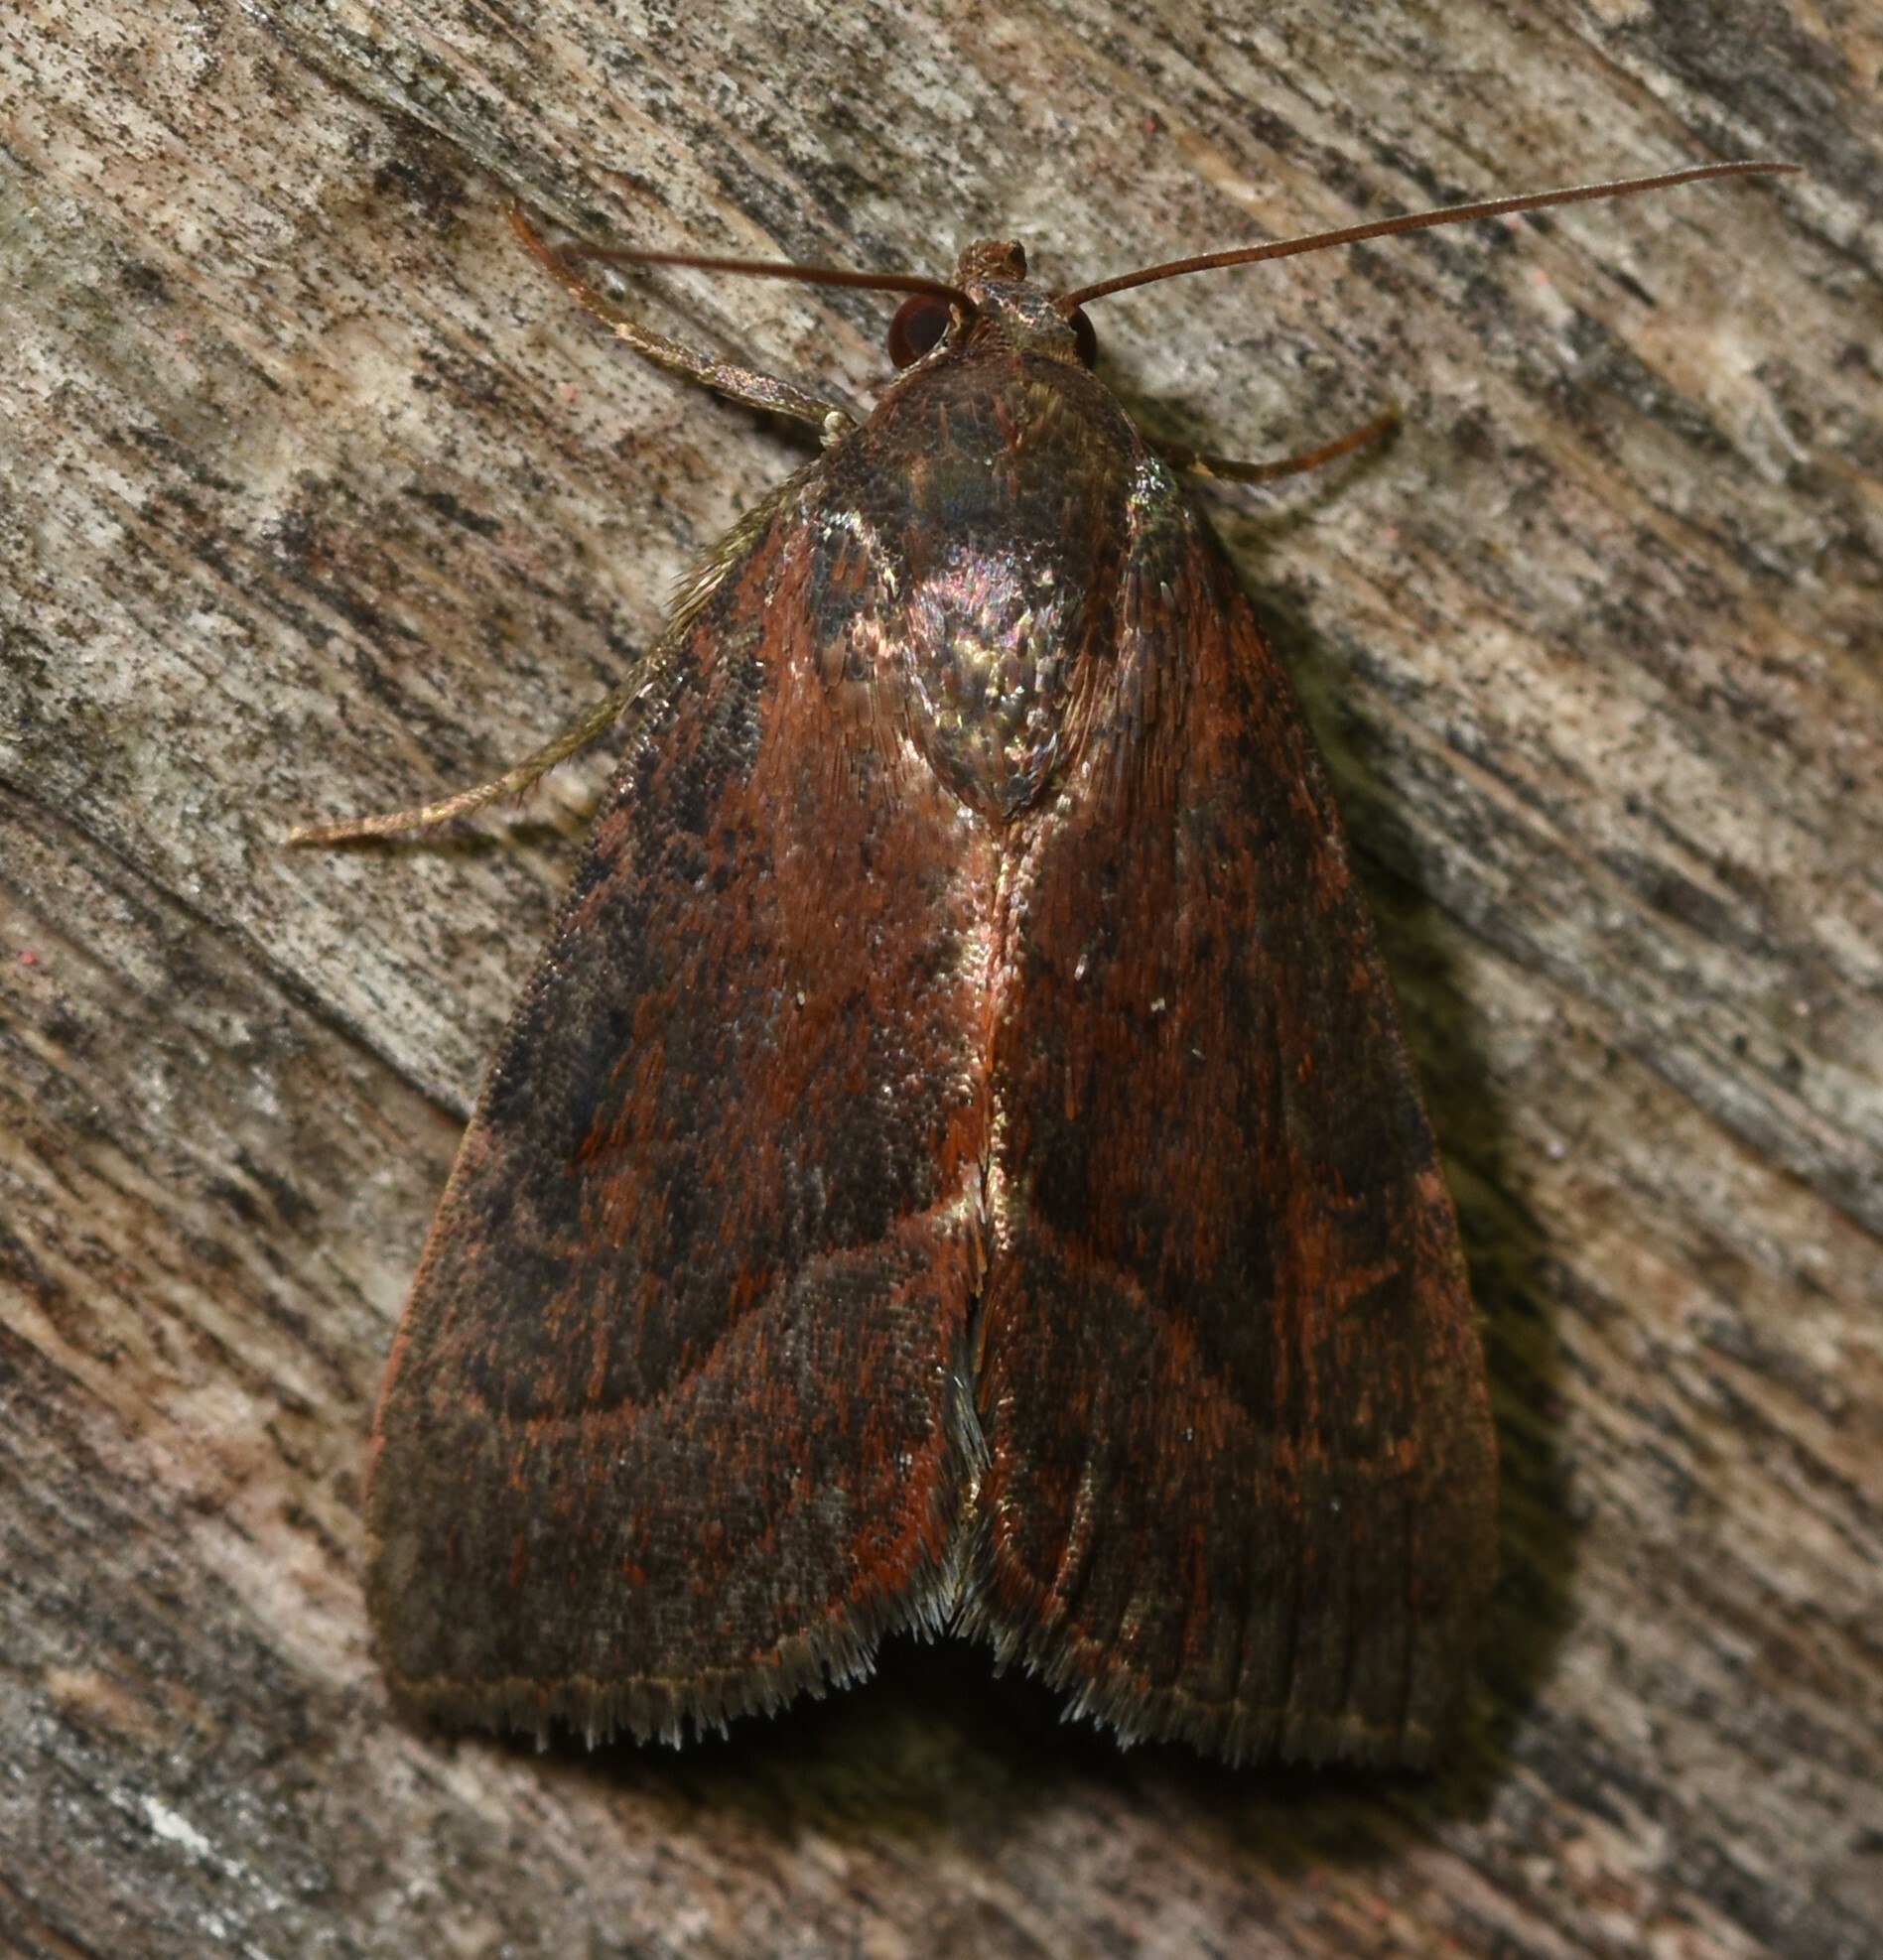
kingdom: Animalia
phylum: Arthropoda
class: Insecta
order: Lepidoptera
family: Noctuidae
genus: Galgula
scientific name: Galgula partita
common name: Wedgeling
